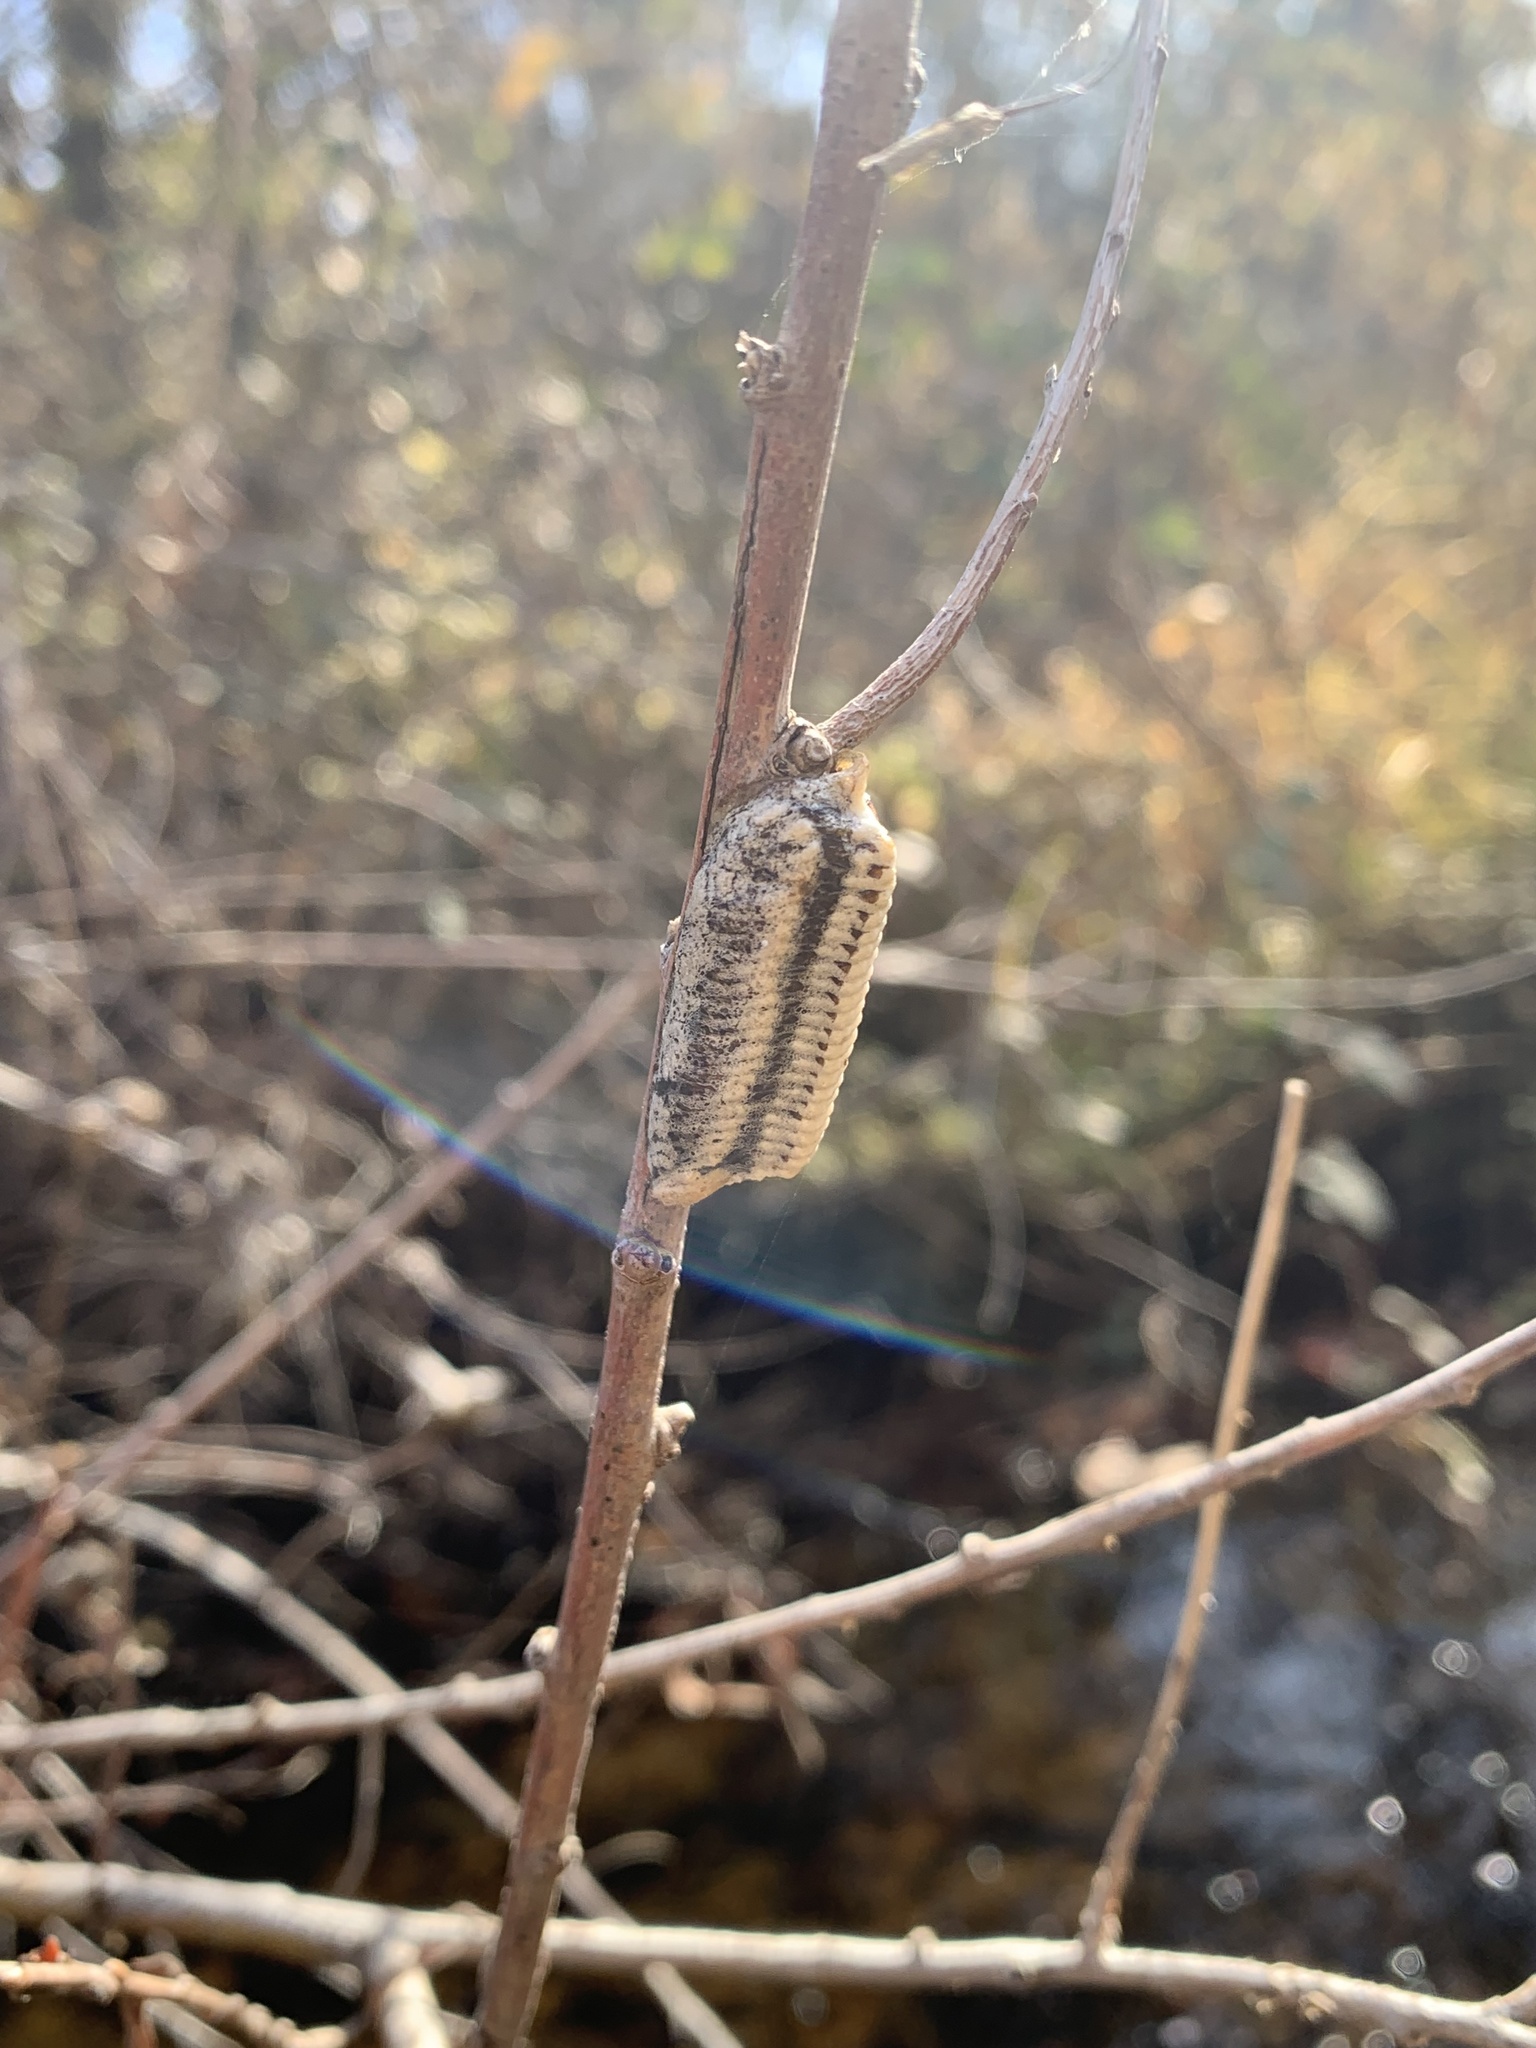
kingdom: Animalia
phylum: Arthropoda
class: Insecta
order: Mantodea
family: Mantidae
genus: Stagmomantis
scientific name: Stagmomantis limbata
